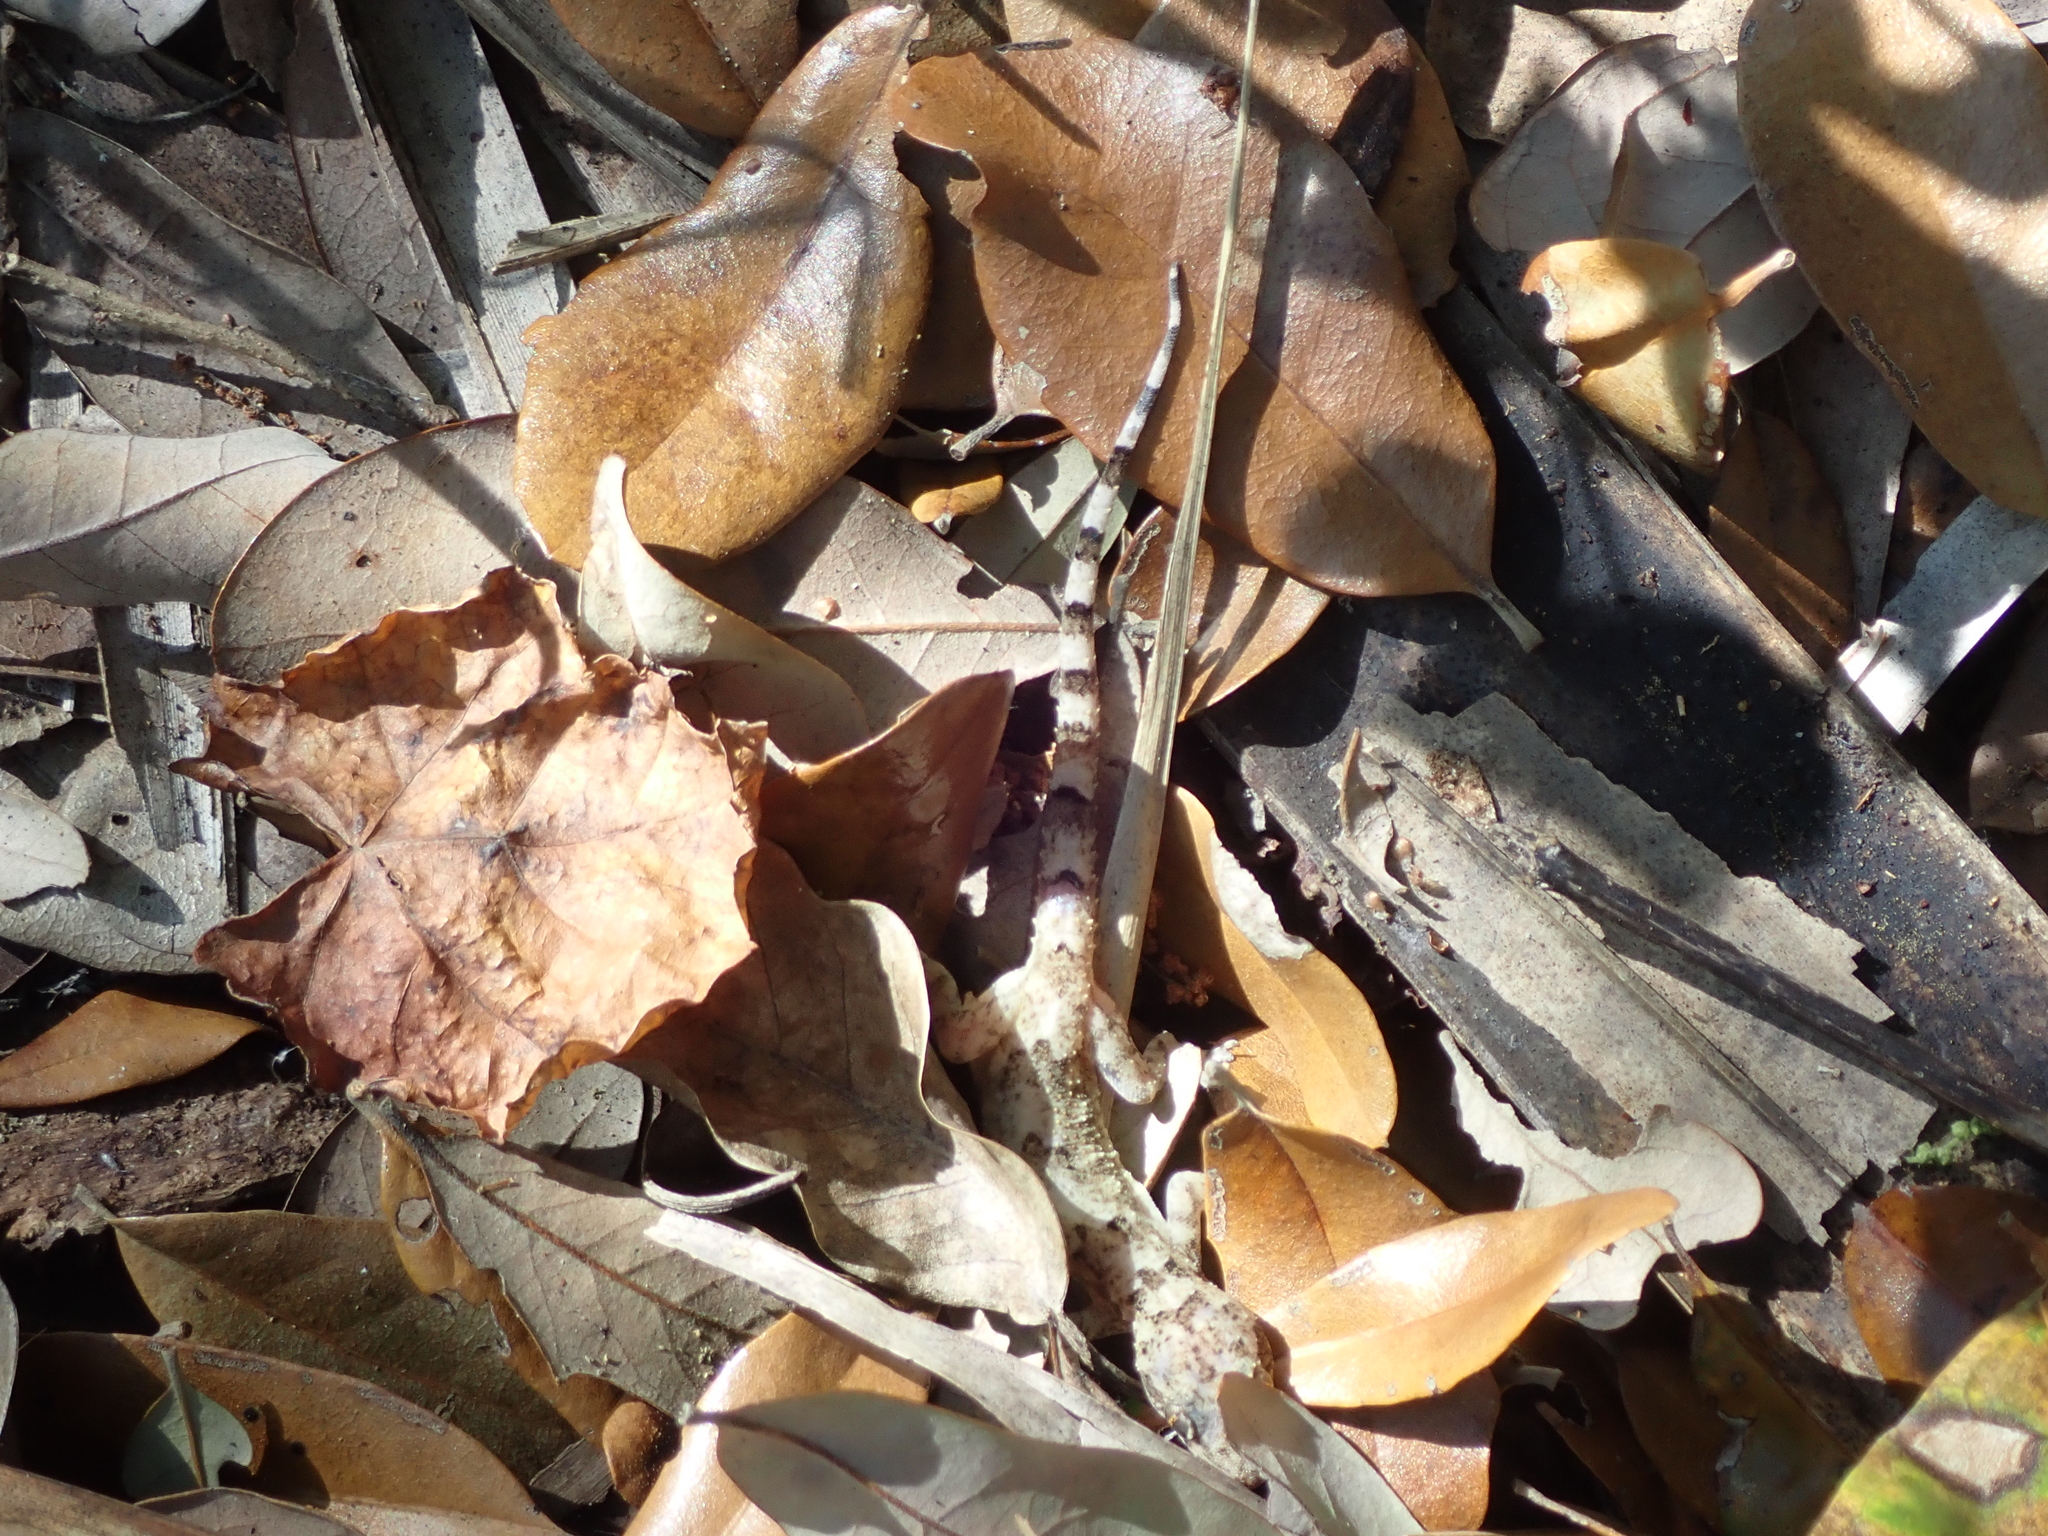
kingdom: Animalia
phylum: Chordata
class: Squamata
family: Gekkonidae
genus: Hemidactylus
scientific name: Hemidactylus mabouia
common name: House gecko
